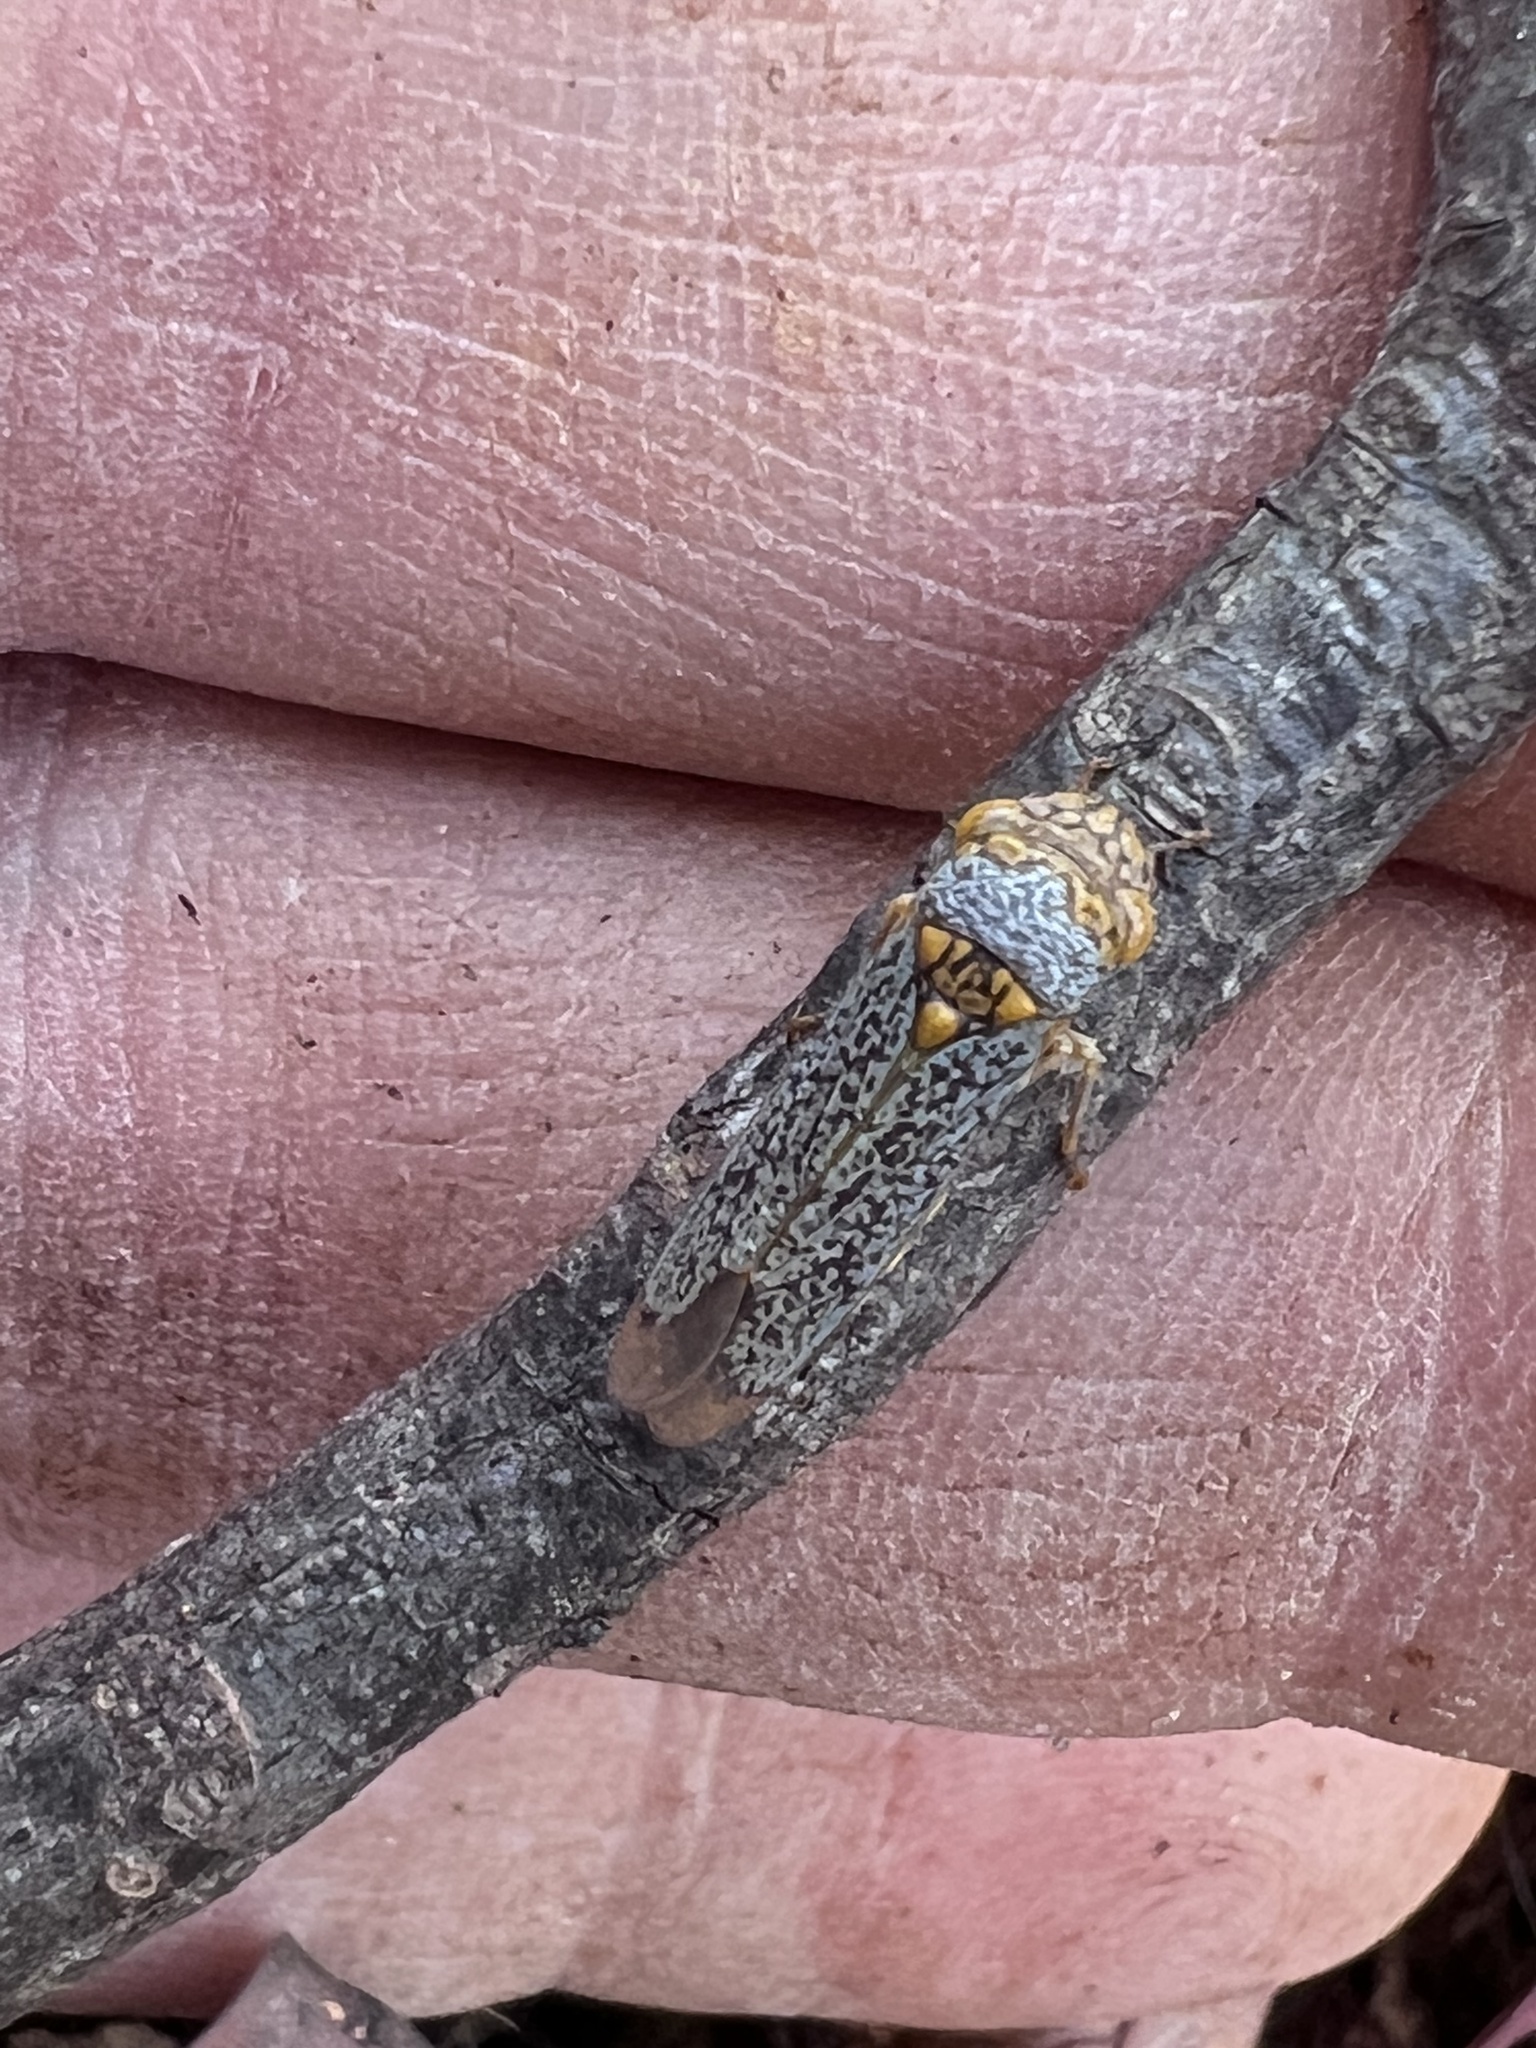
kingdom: Animalia
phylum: Arthropoda
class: Insecta
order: Hemiptera
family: Cicadellidae
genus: Oncometopia
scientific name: Oncometopia orbona
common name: Broad-headed sharpshooter
